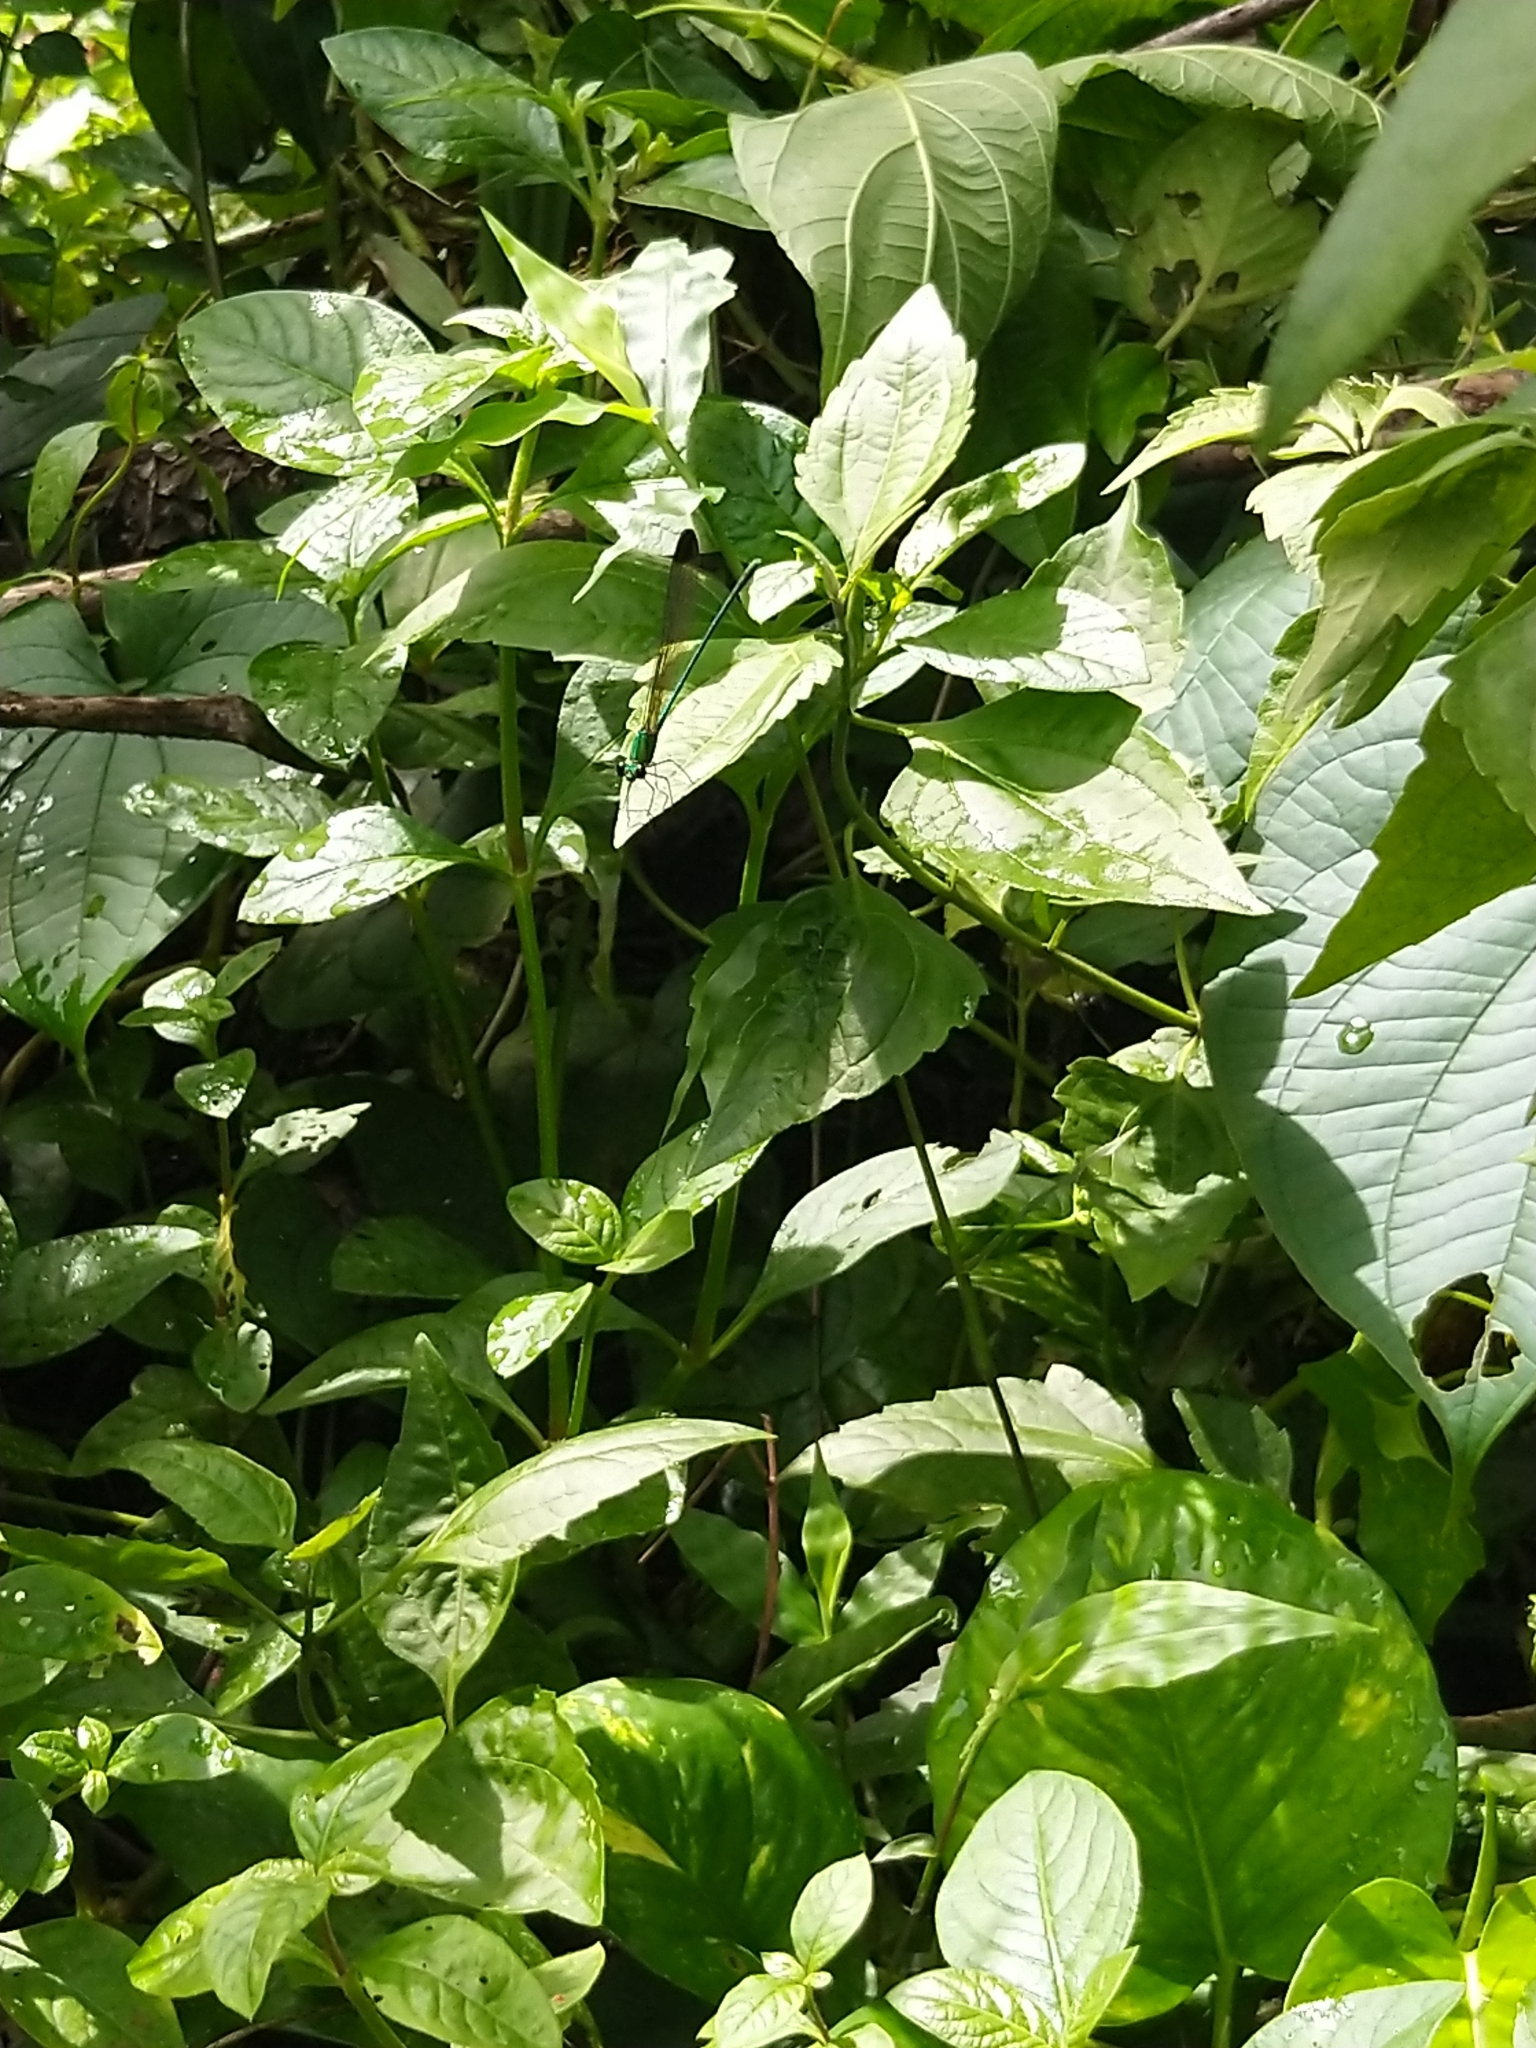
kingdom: Animalia
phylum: Arthropoda
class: Insecta
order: Odonata
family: Calopterygidae
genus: Vestalis
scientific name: Vestalis apicalis
